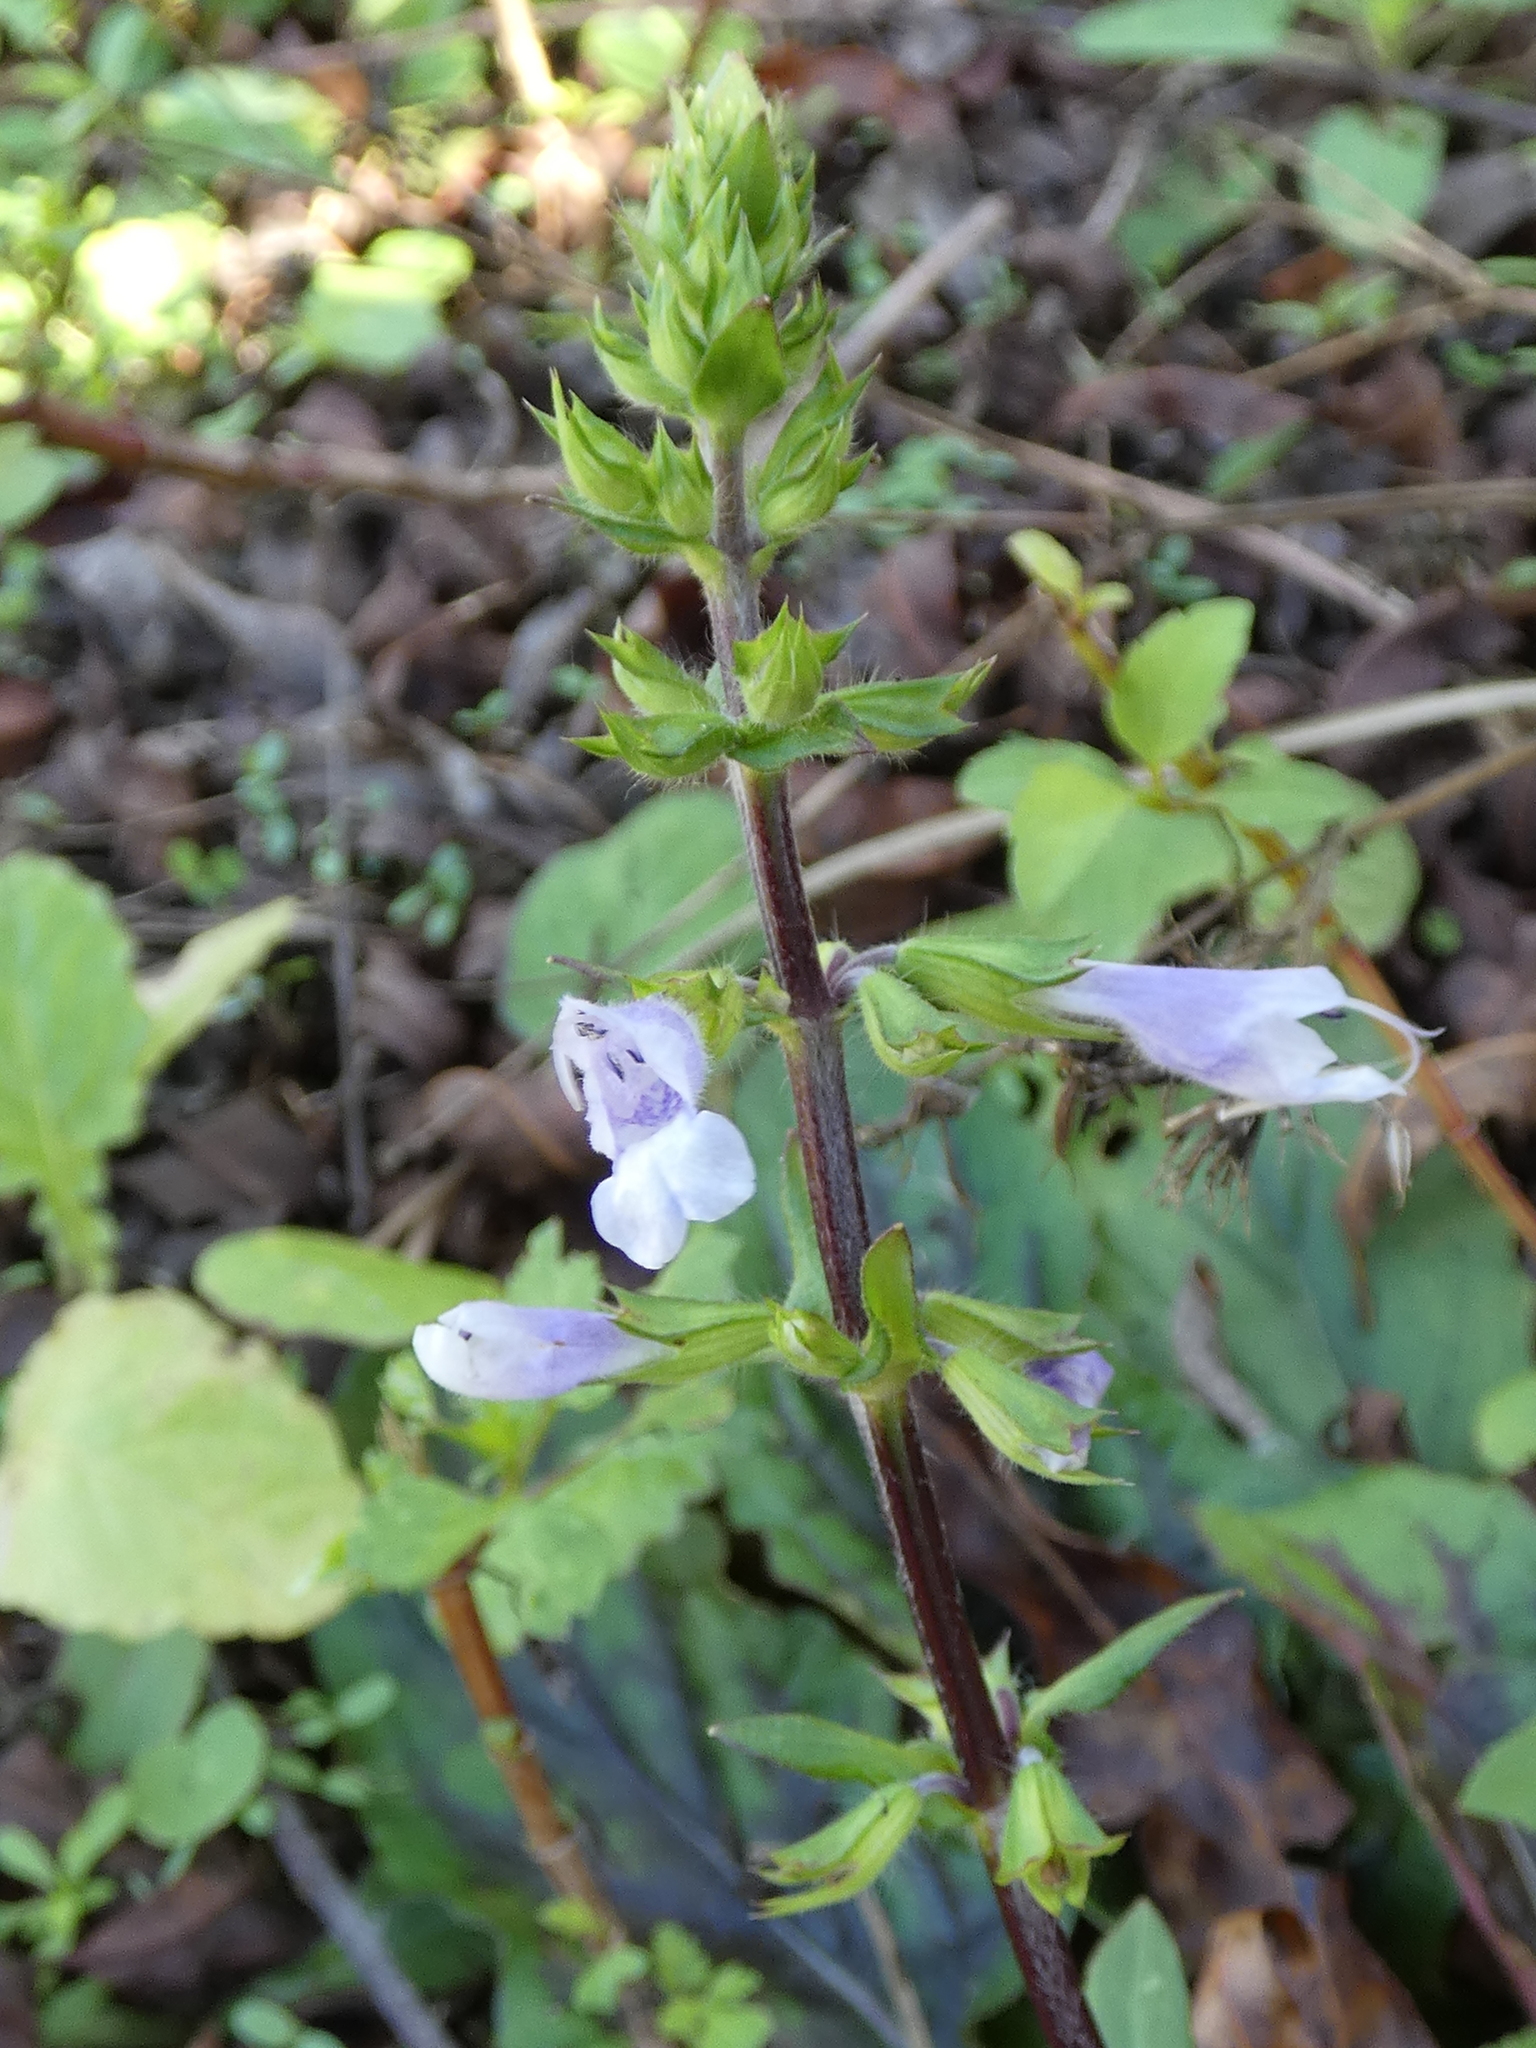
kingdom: Plantae
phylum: Tracheophyta
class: Magnoliopsida
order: Lamiales
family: Lamiaceae
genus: Salvia
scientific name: Salvia lyrata
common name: Cancerweed
